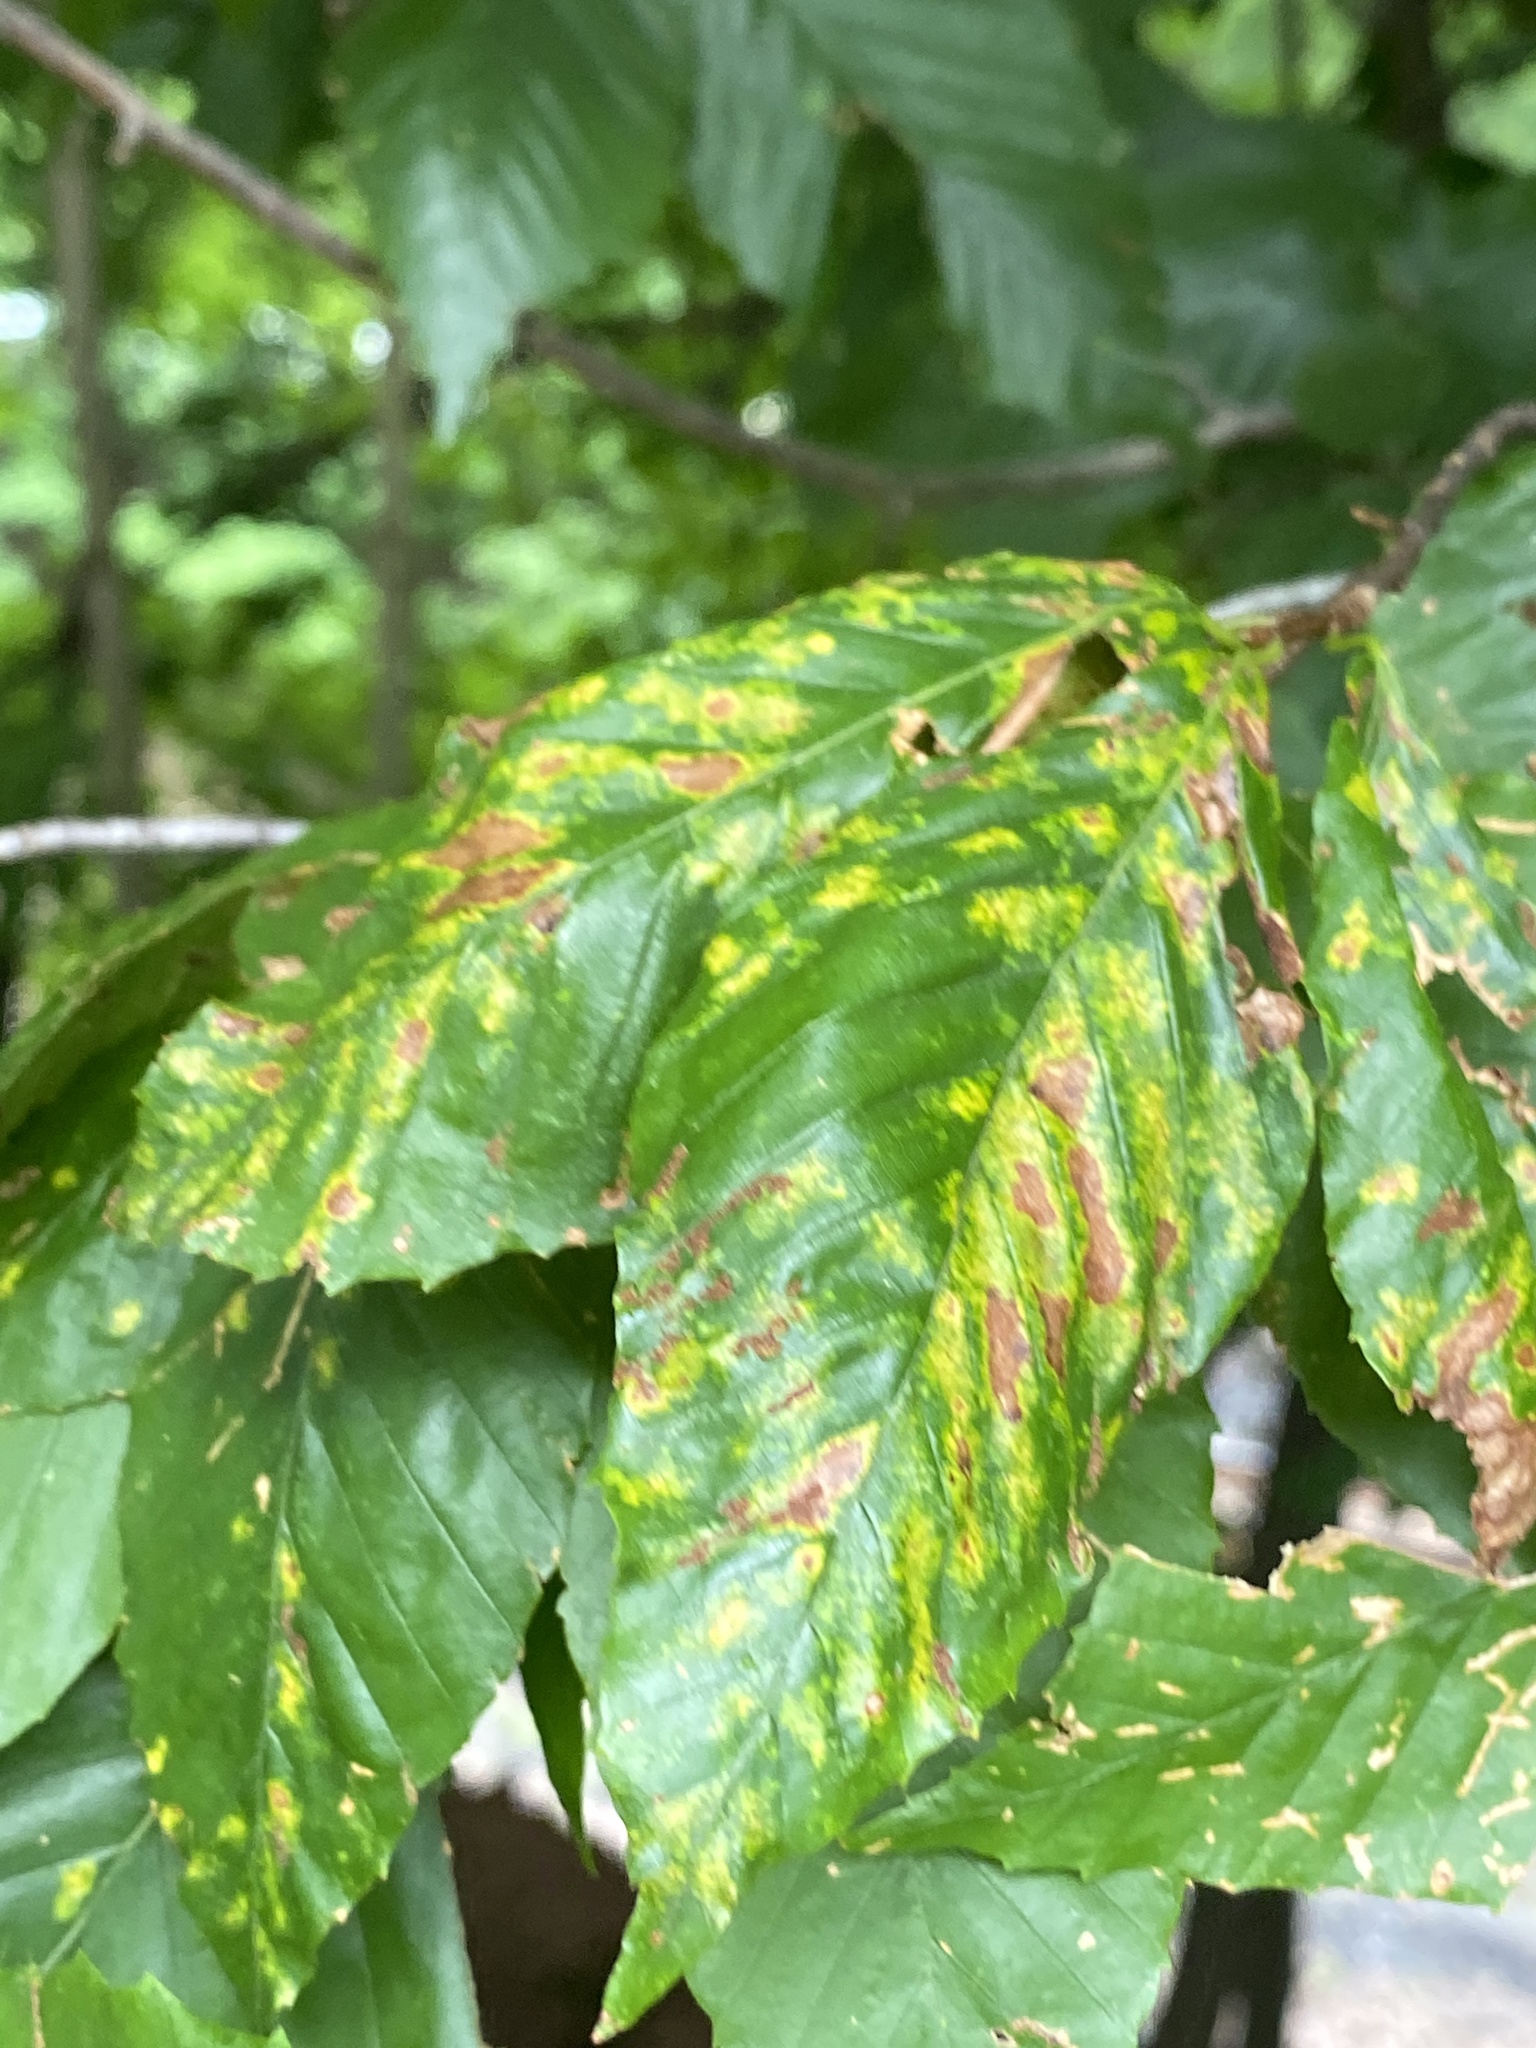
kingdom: Animalia
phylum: Arthropoda
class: Arachnida
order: Trombidiformes
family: Eriophyidae
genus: Acalitus
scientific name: Acalitus
